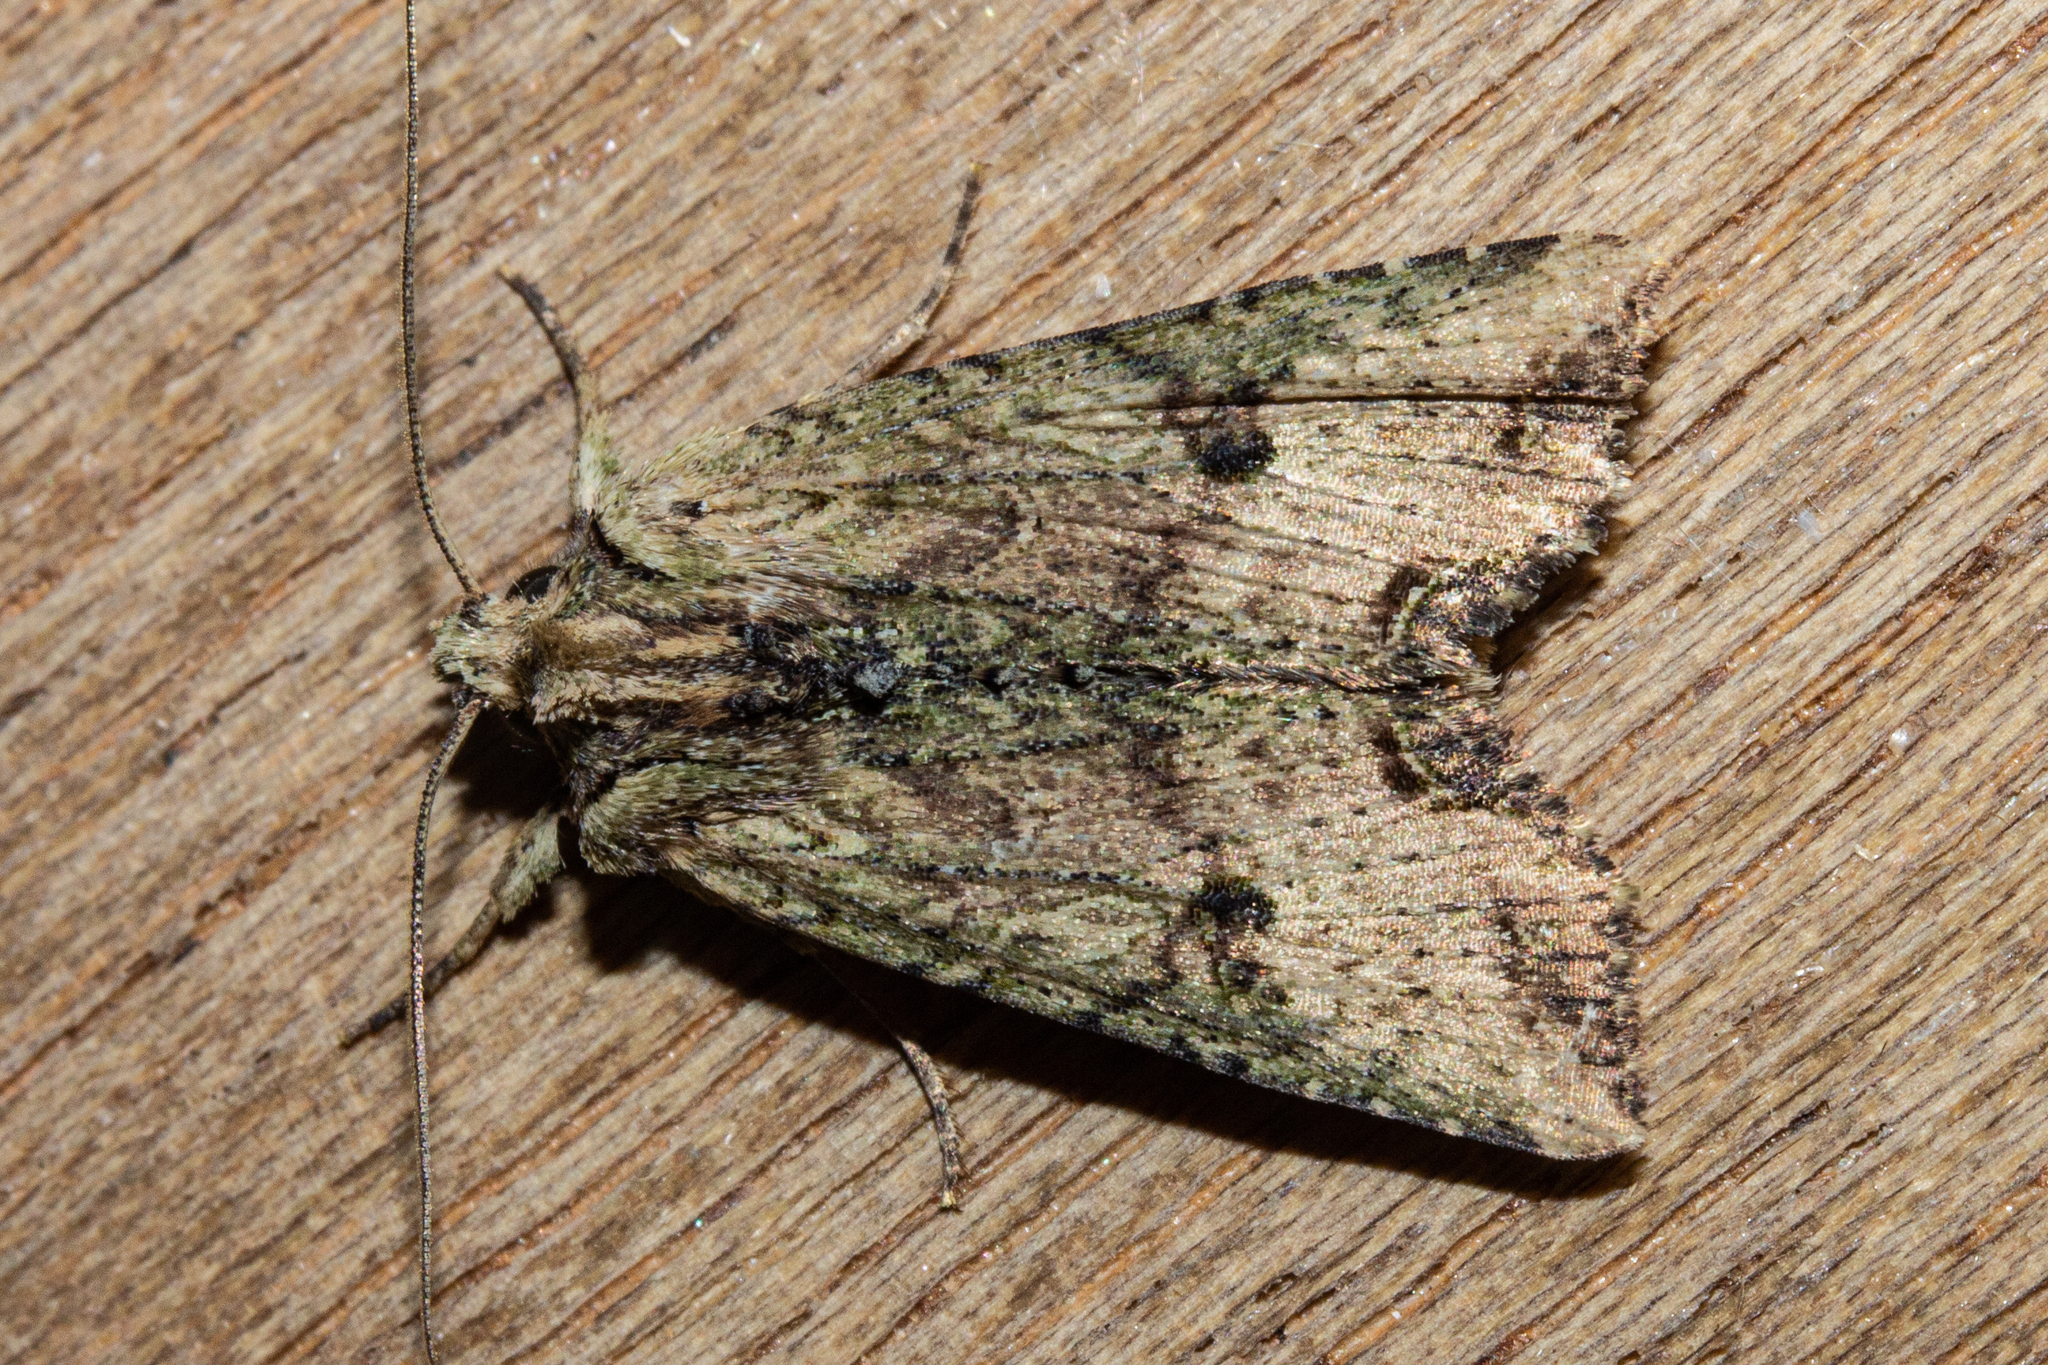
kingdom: Animalia
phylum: Arthropoda
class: Insecta
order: Lepidoptera
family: Noctuidae
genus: Meterana
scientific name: Meterana coeleno
